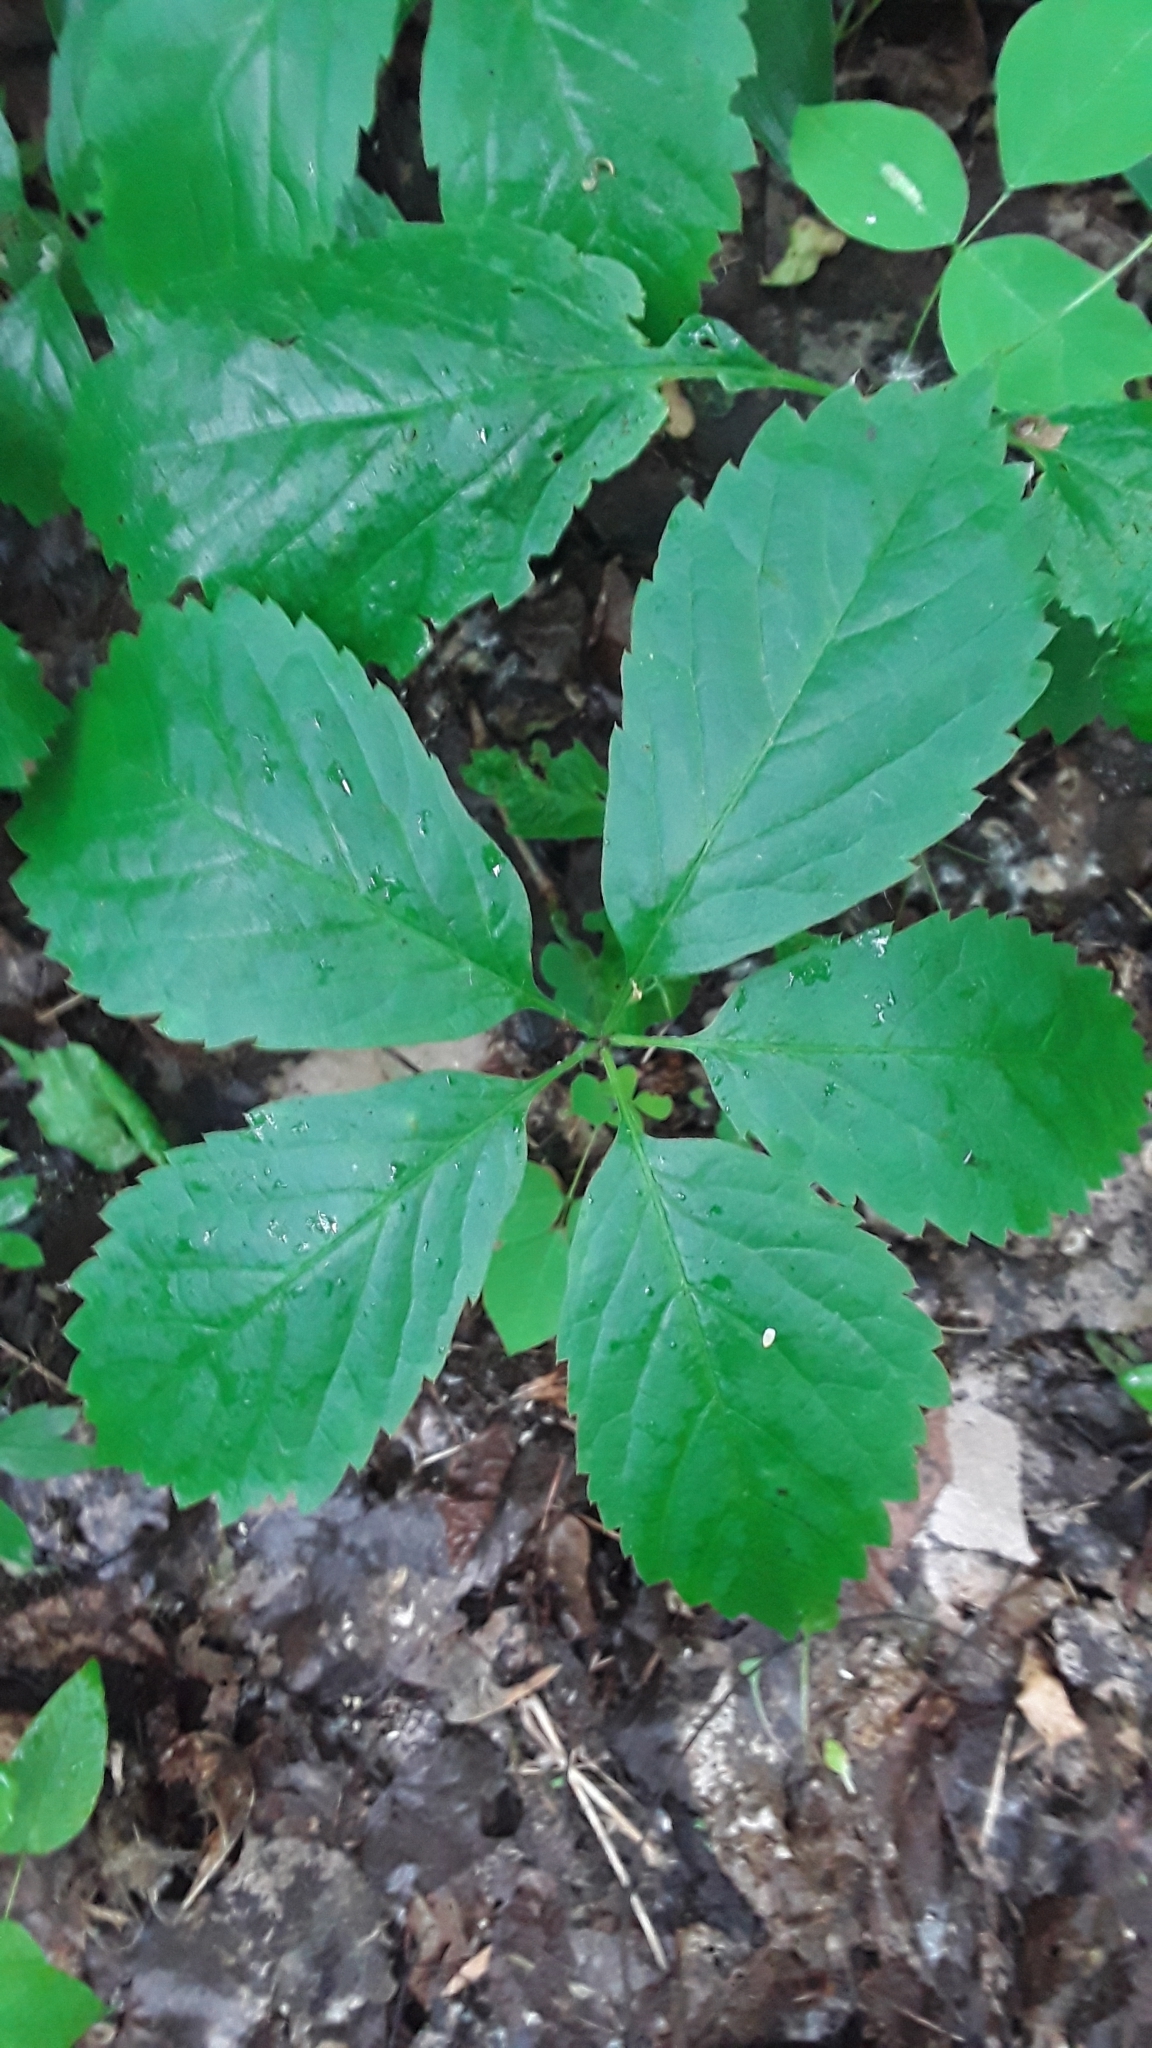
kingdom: Plantae
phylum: Tracheophyta
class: Magnoliopsida
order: Vitales
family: Vitaceae
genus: Parthenocissus
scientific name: Parthenocissus inserta
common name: False virginia-creeper
